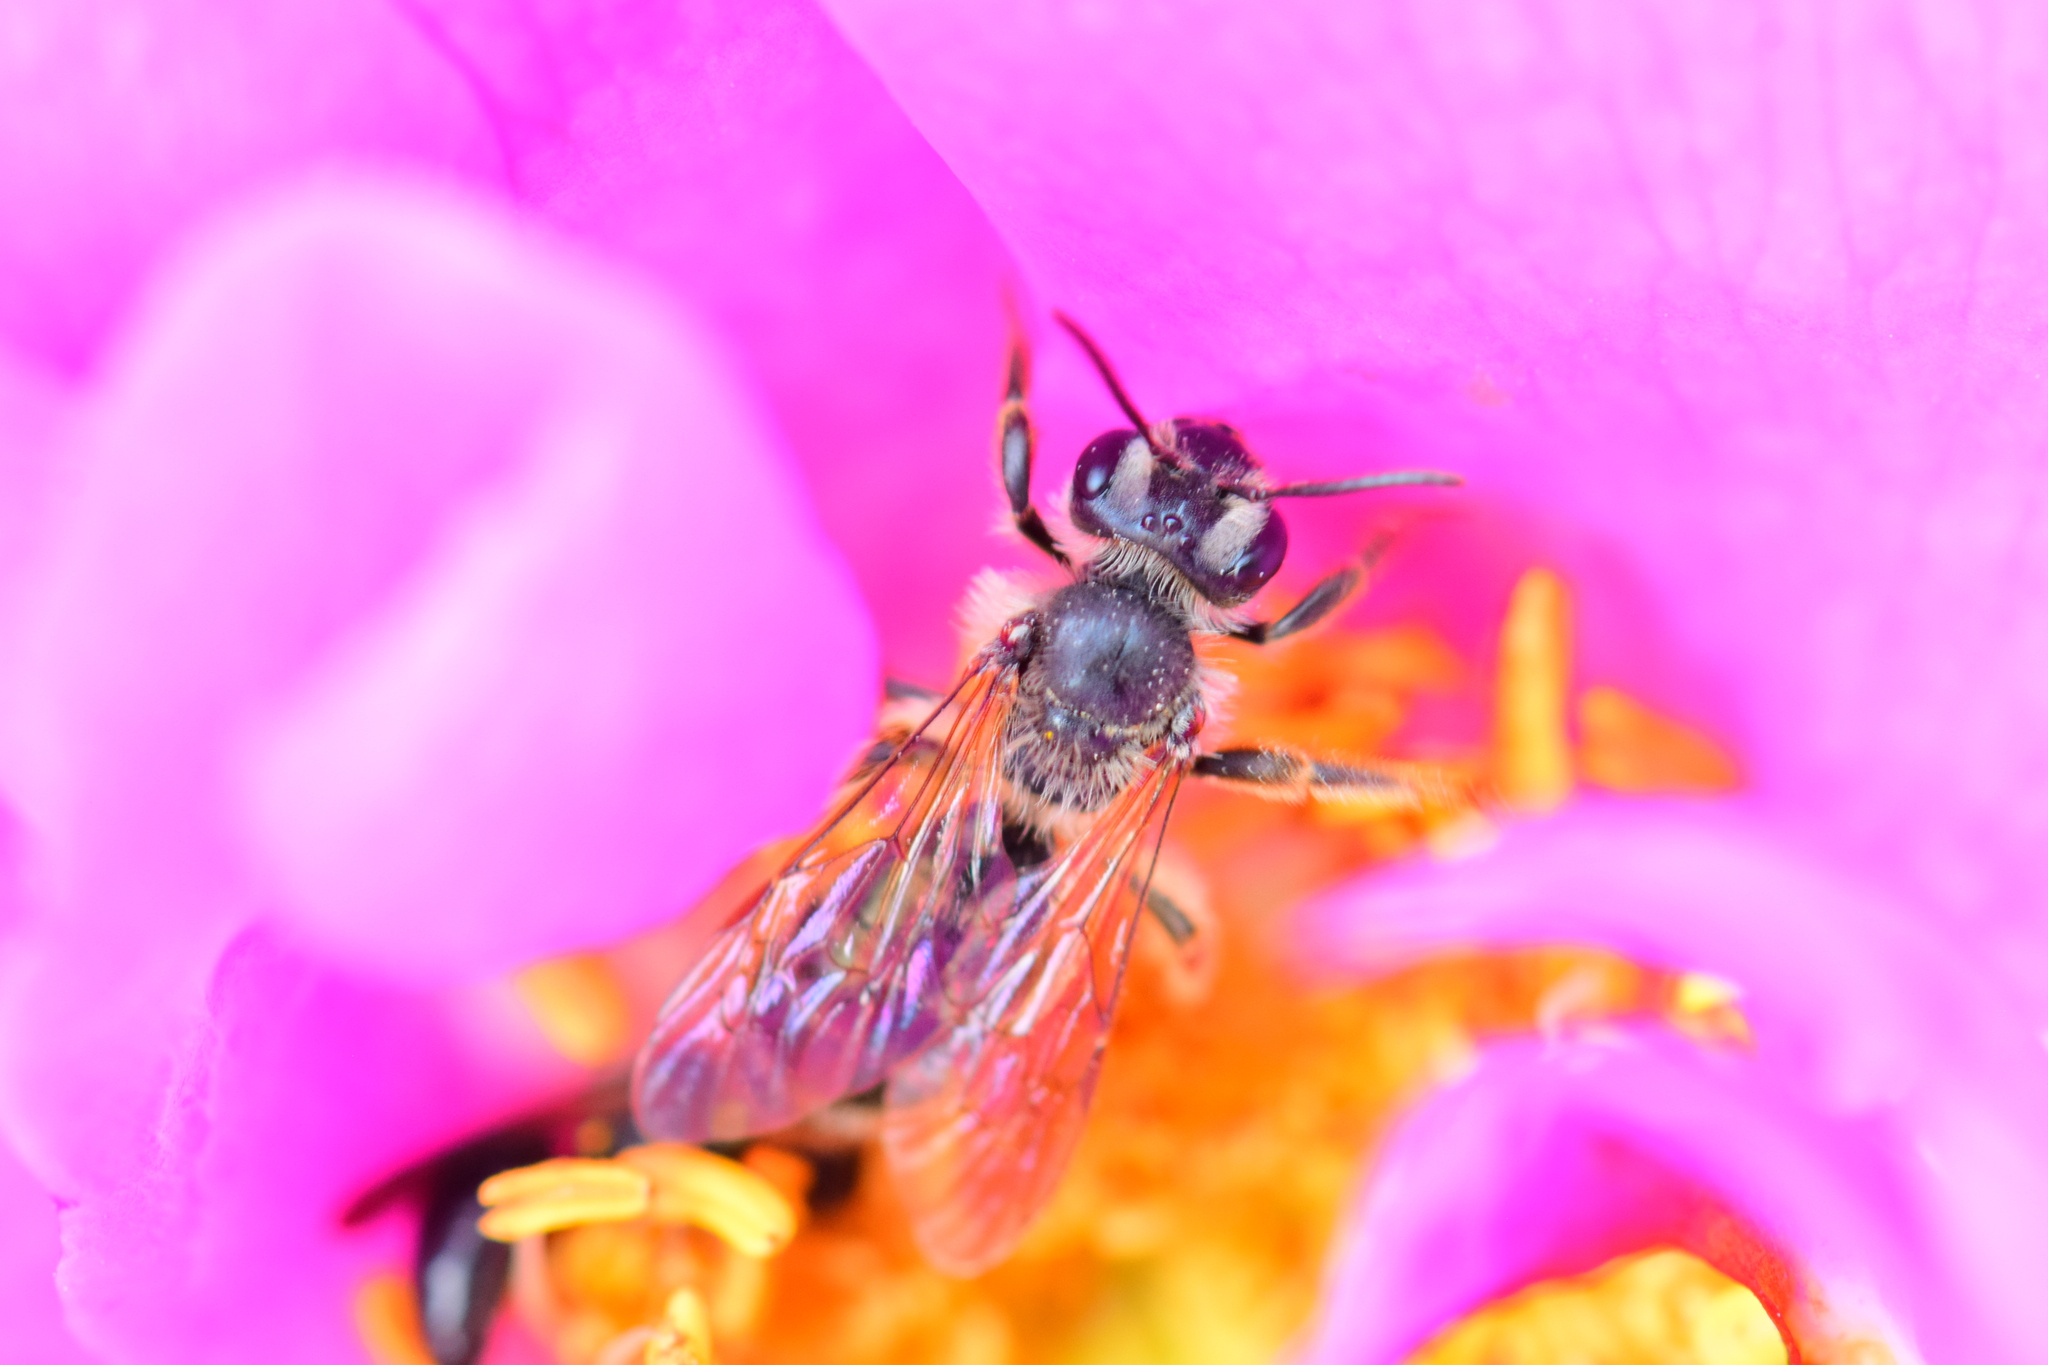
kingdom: Animalia
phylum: Arthropoda
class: Insecta
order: Hymenoptera
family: Andrenidae
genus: Andrena
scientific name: Andrena thaspii
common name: Parsnip miner bee
